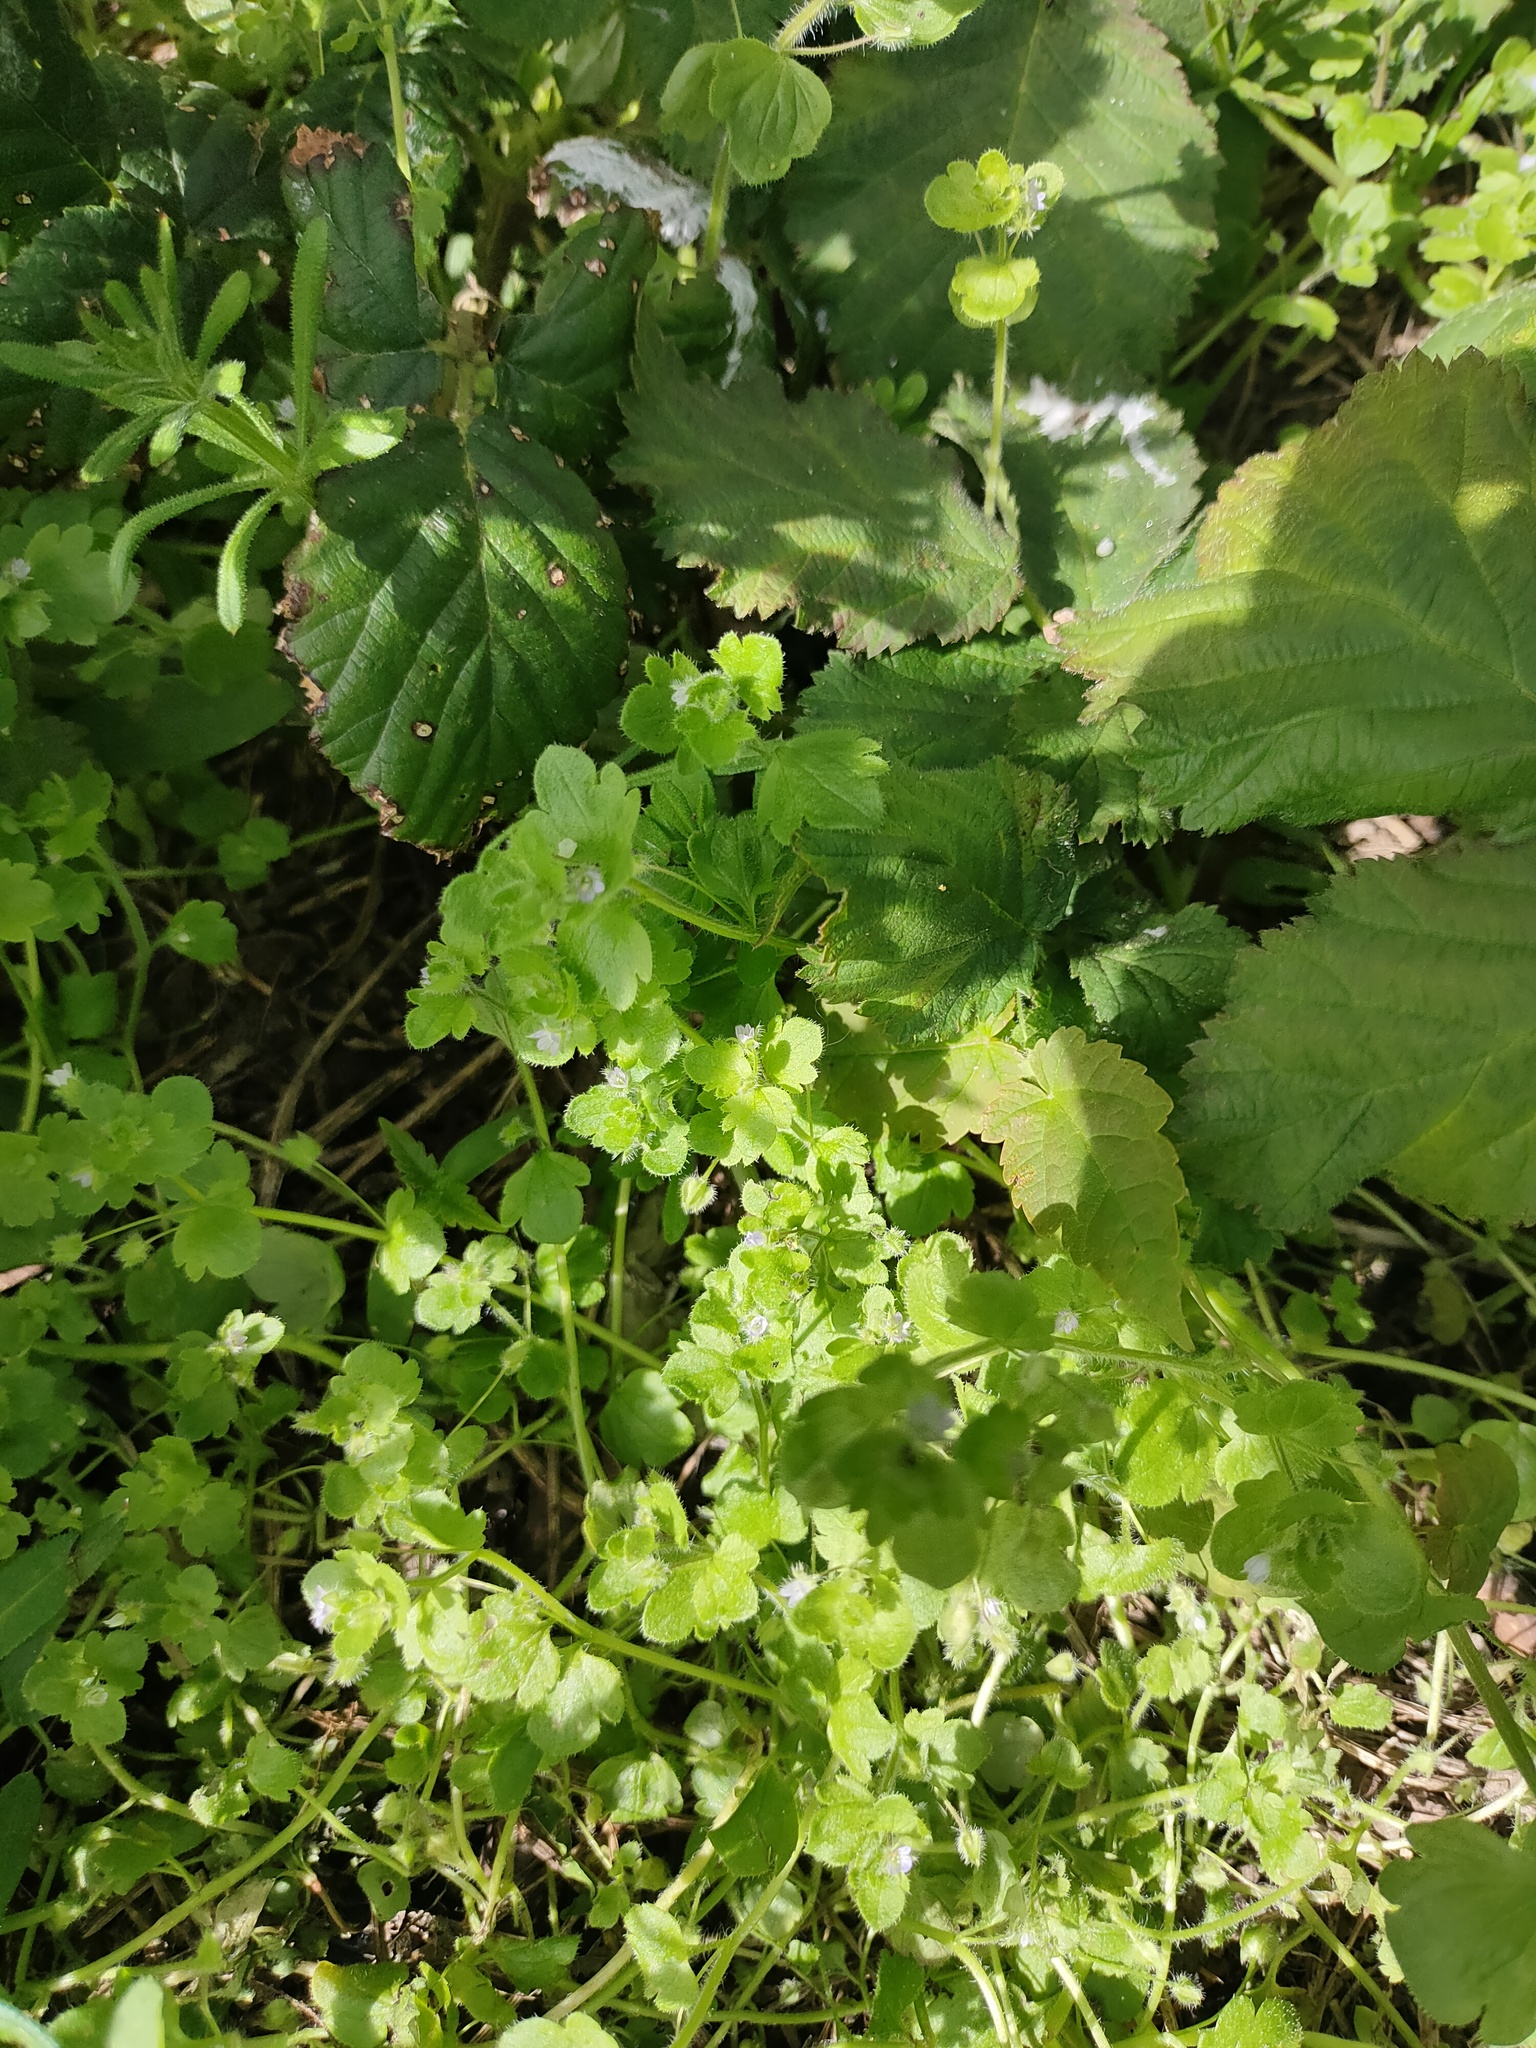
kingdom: Plantae
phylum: Tracheophyta
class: Magnoliopsida
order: Lamiales
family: Plantaginaceae
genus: Veronica
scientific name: Veronica sublobata
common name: False ivy-leaved speedwell
